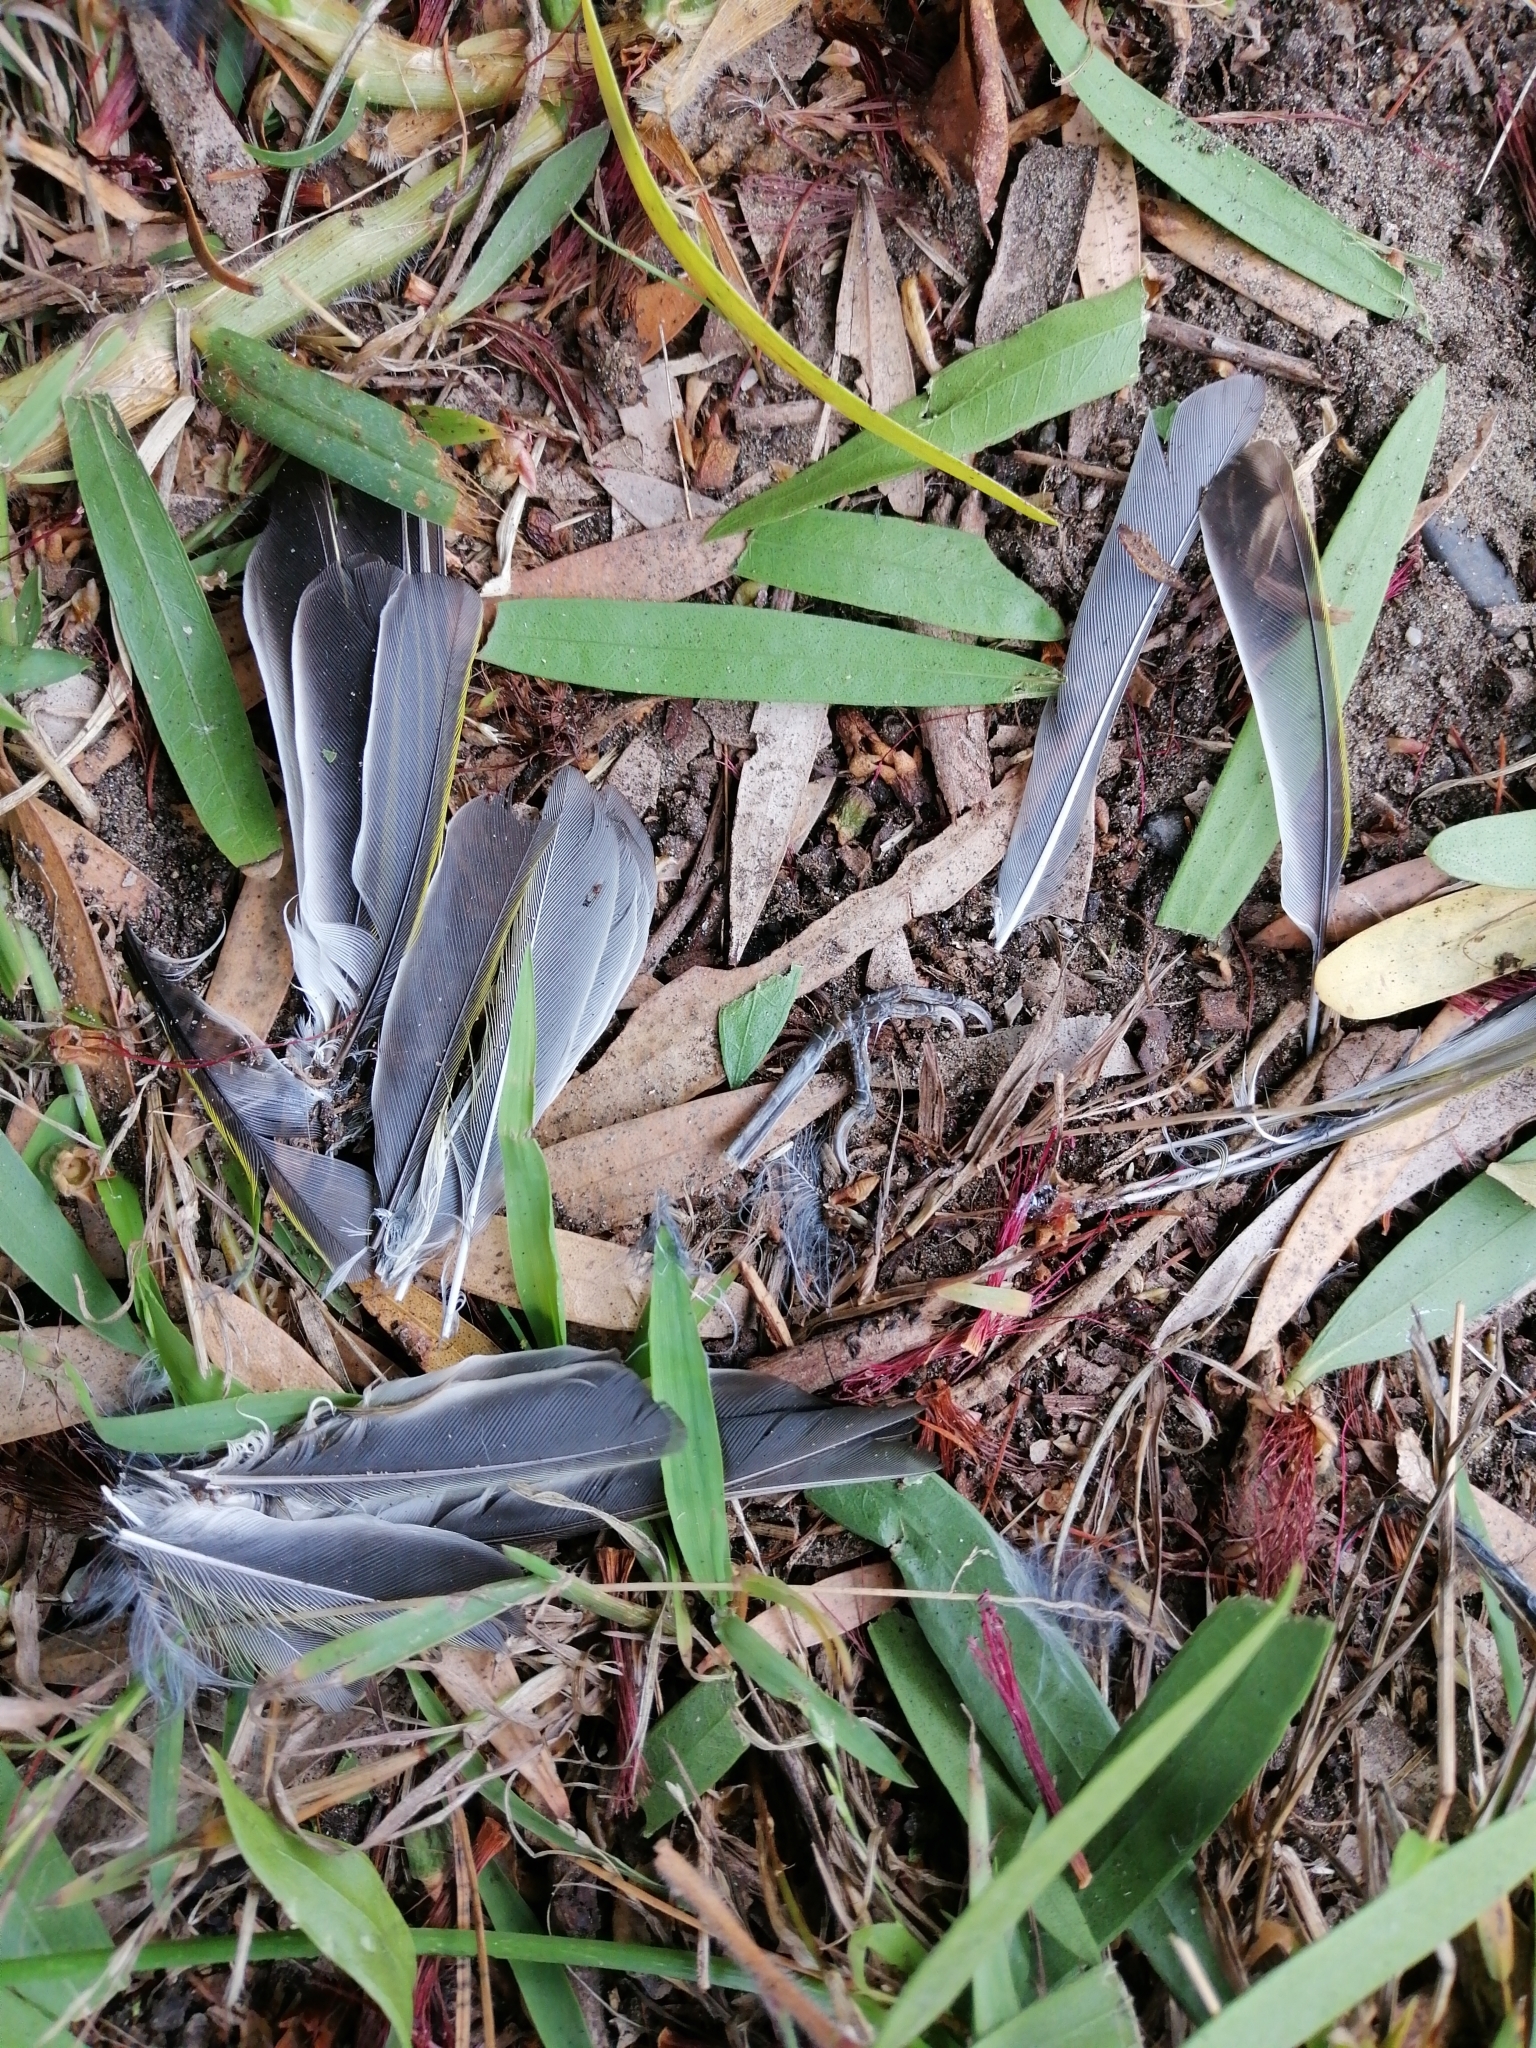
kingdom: Animalia
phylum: Chordata
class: Aves
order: Passeriformes
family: Zosteropidae
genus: Zosterops
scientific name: Zosterops lateralis
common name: Silvereye
